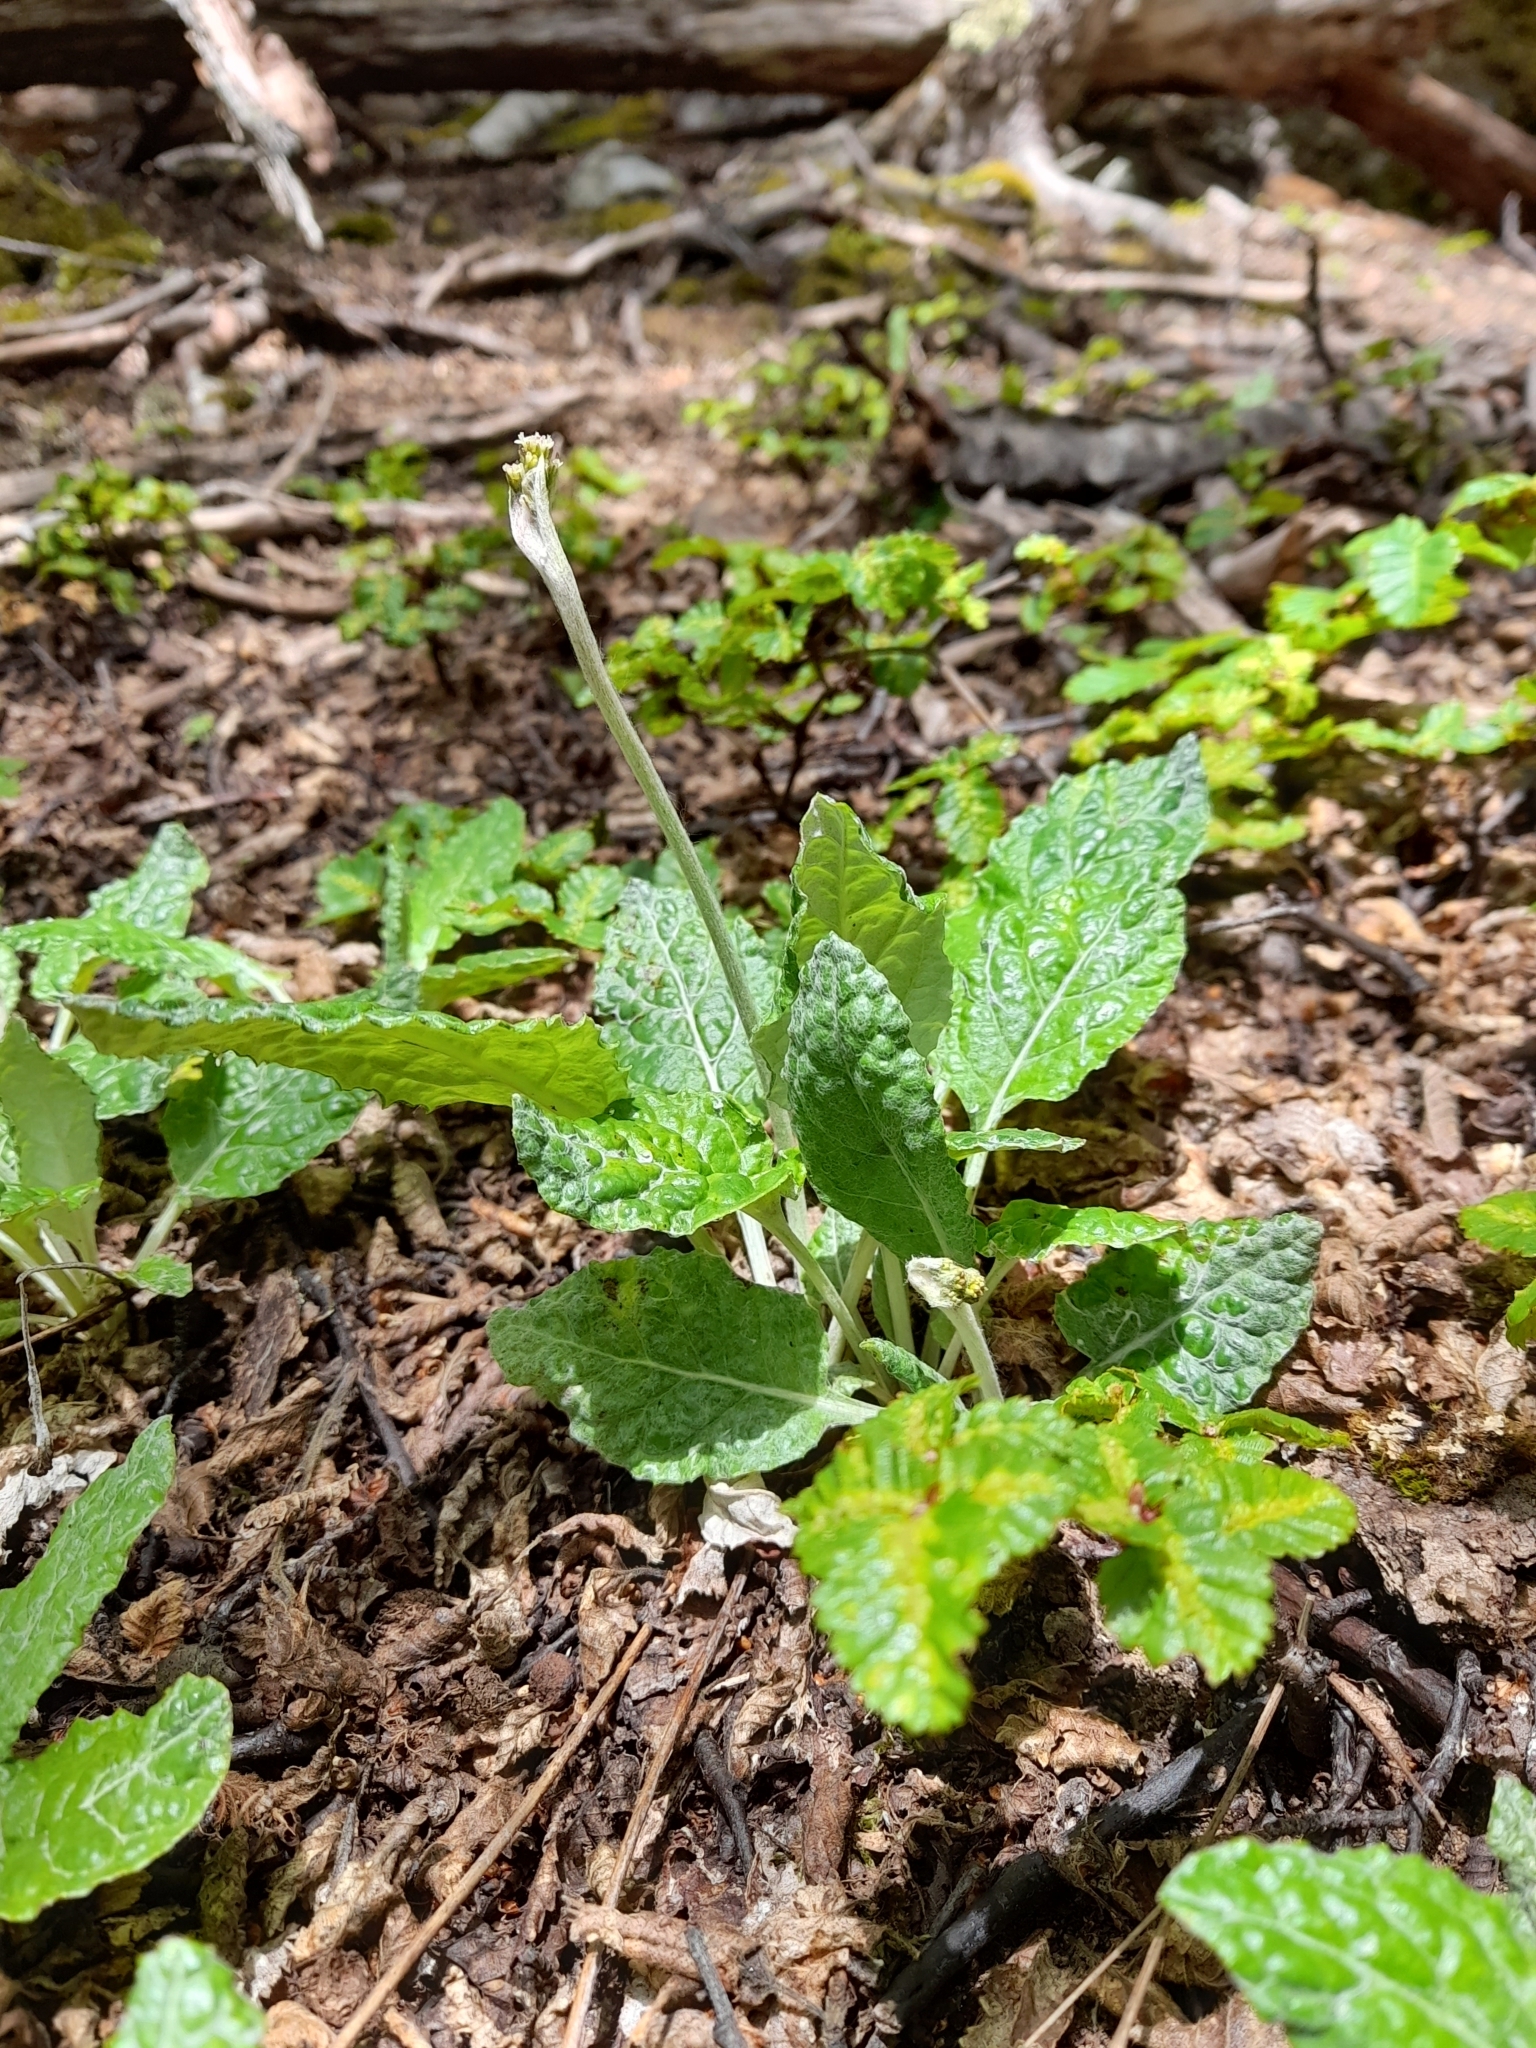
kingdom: Plantae
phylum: Tracheophyta
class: Magnoliopsida
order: Asterales
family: Asteraceae
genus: Adenocaulon
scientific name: Adenocaulon chilense
